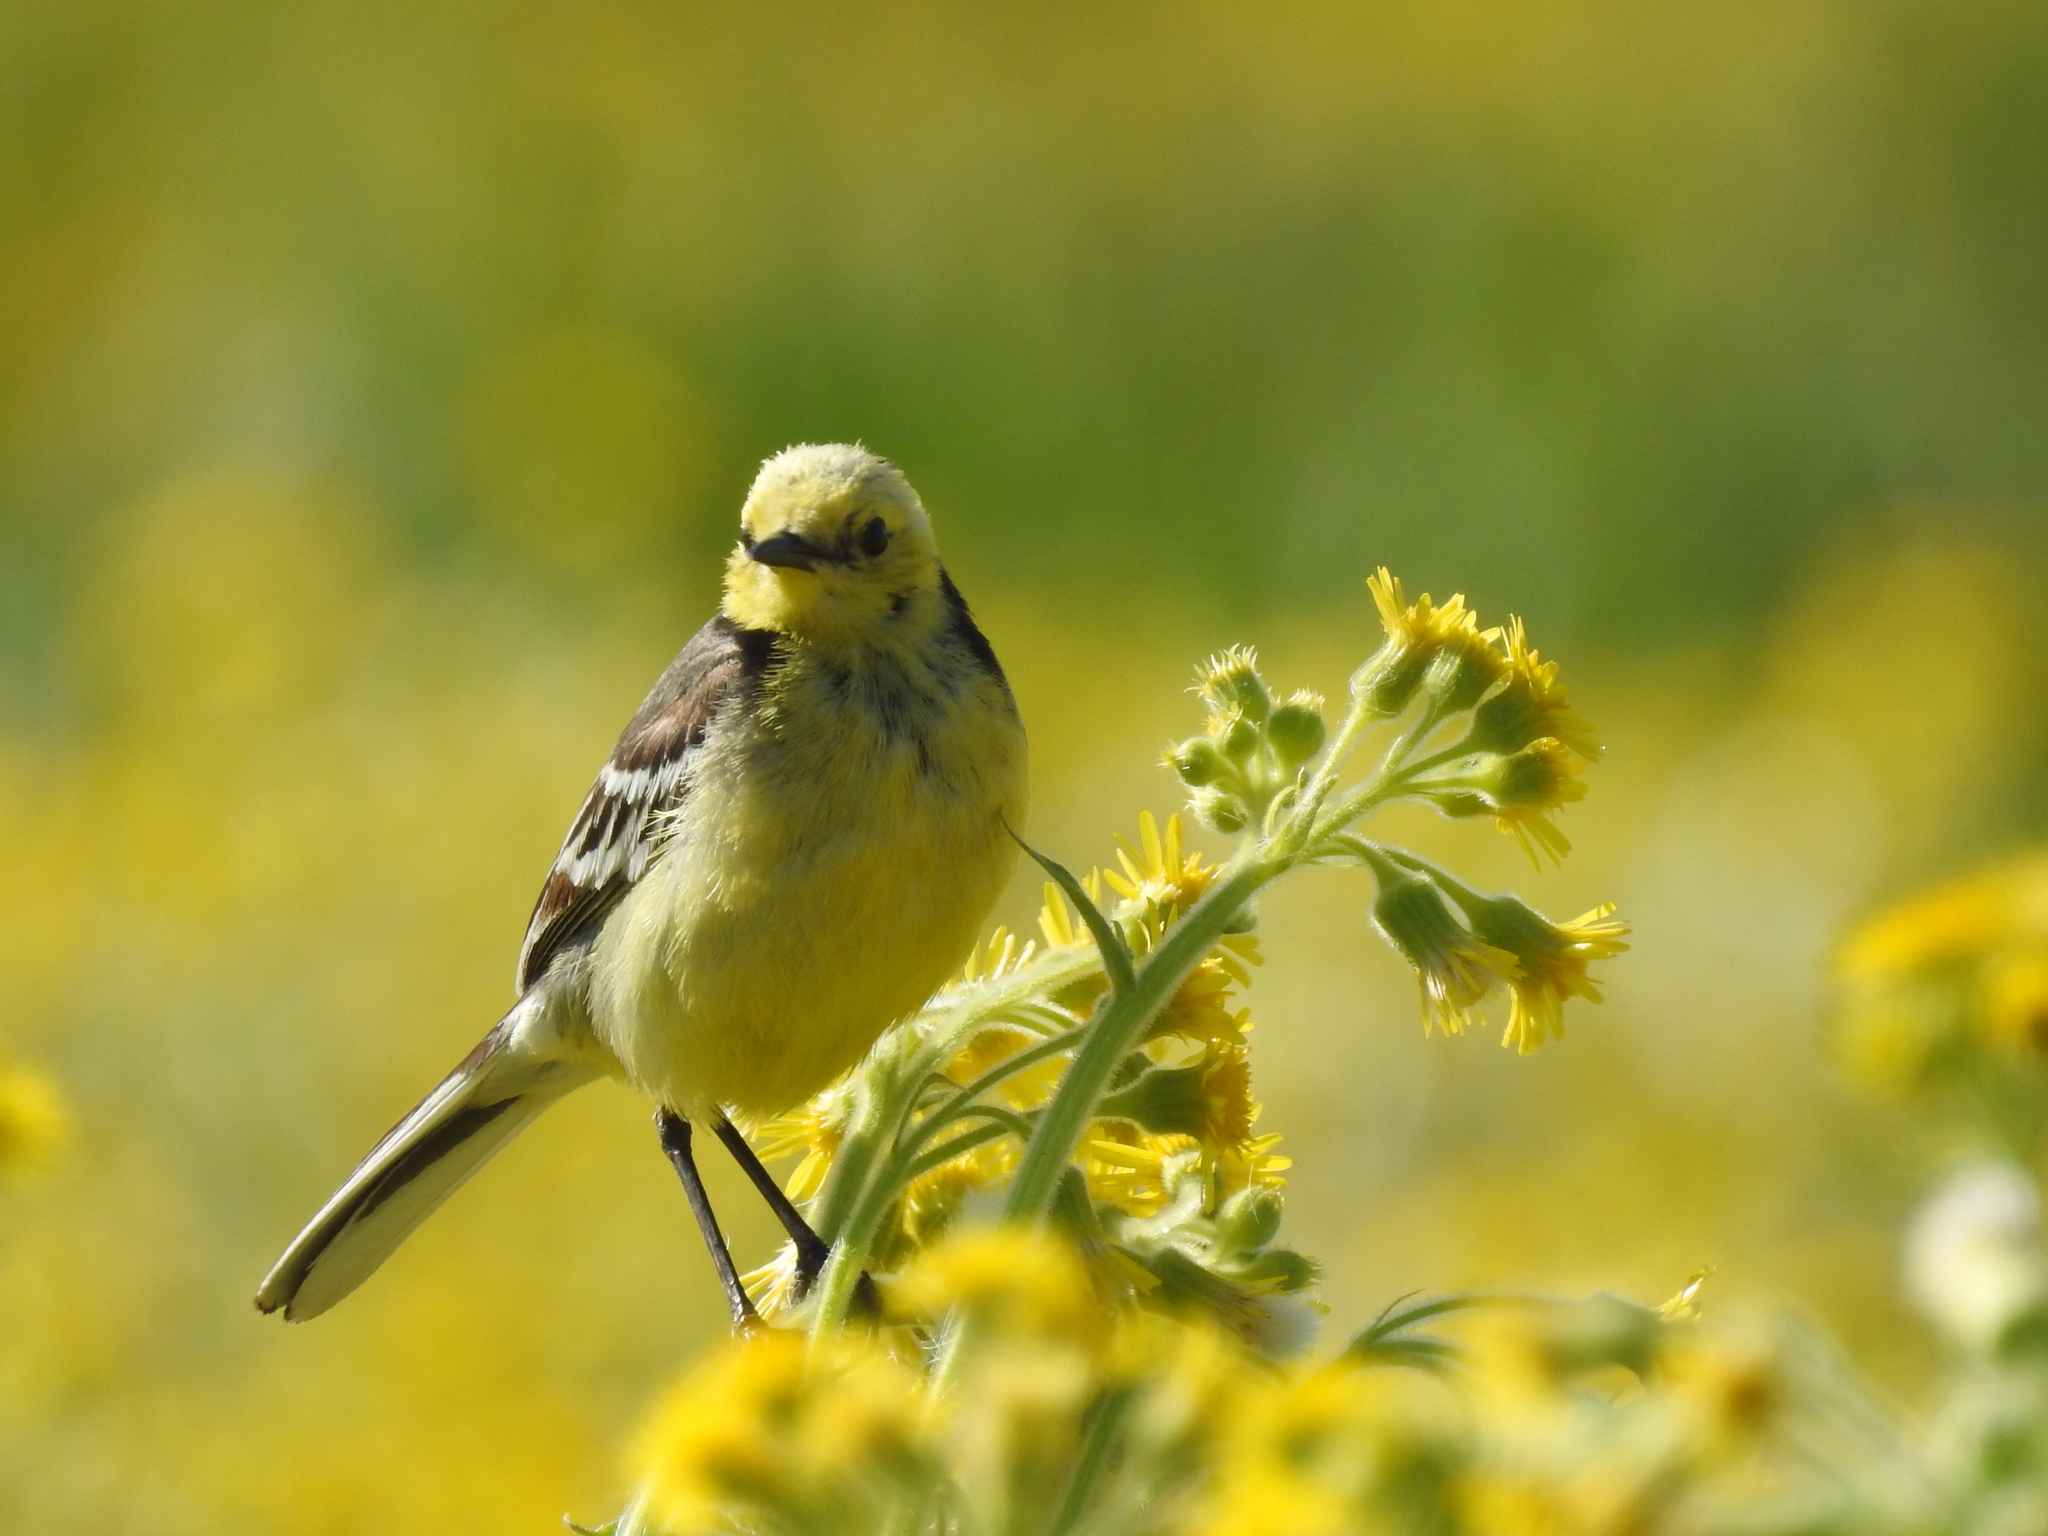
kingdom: Animalia
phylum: Chordata
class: Aves
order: Passeriformes
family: Motacillidae
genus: Motacilla
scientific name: Motacilla citreola
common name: Citrine wagtail
